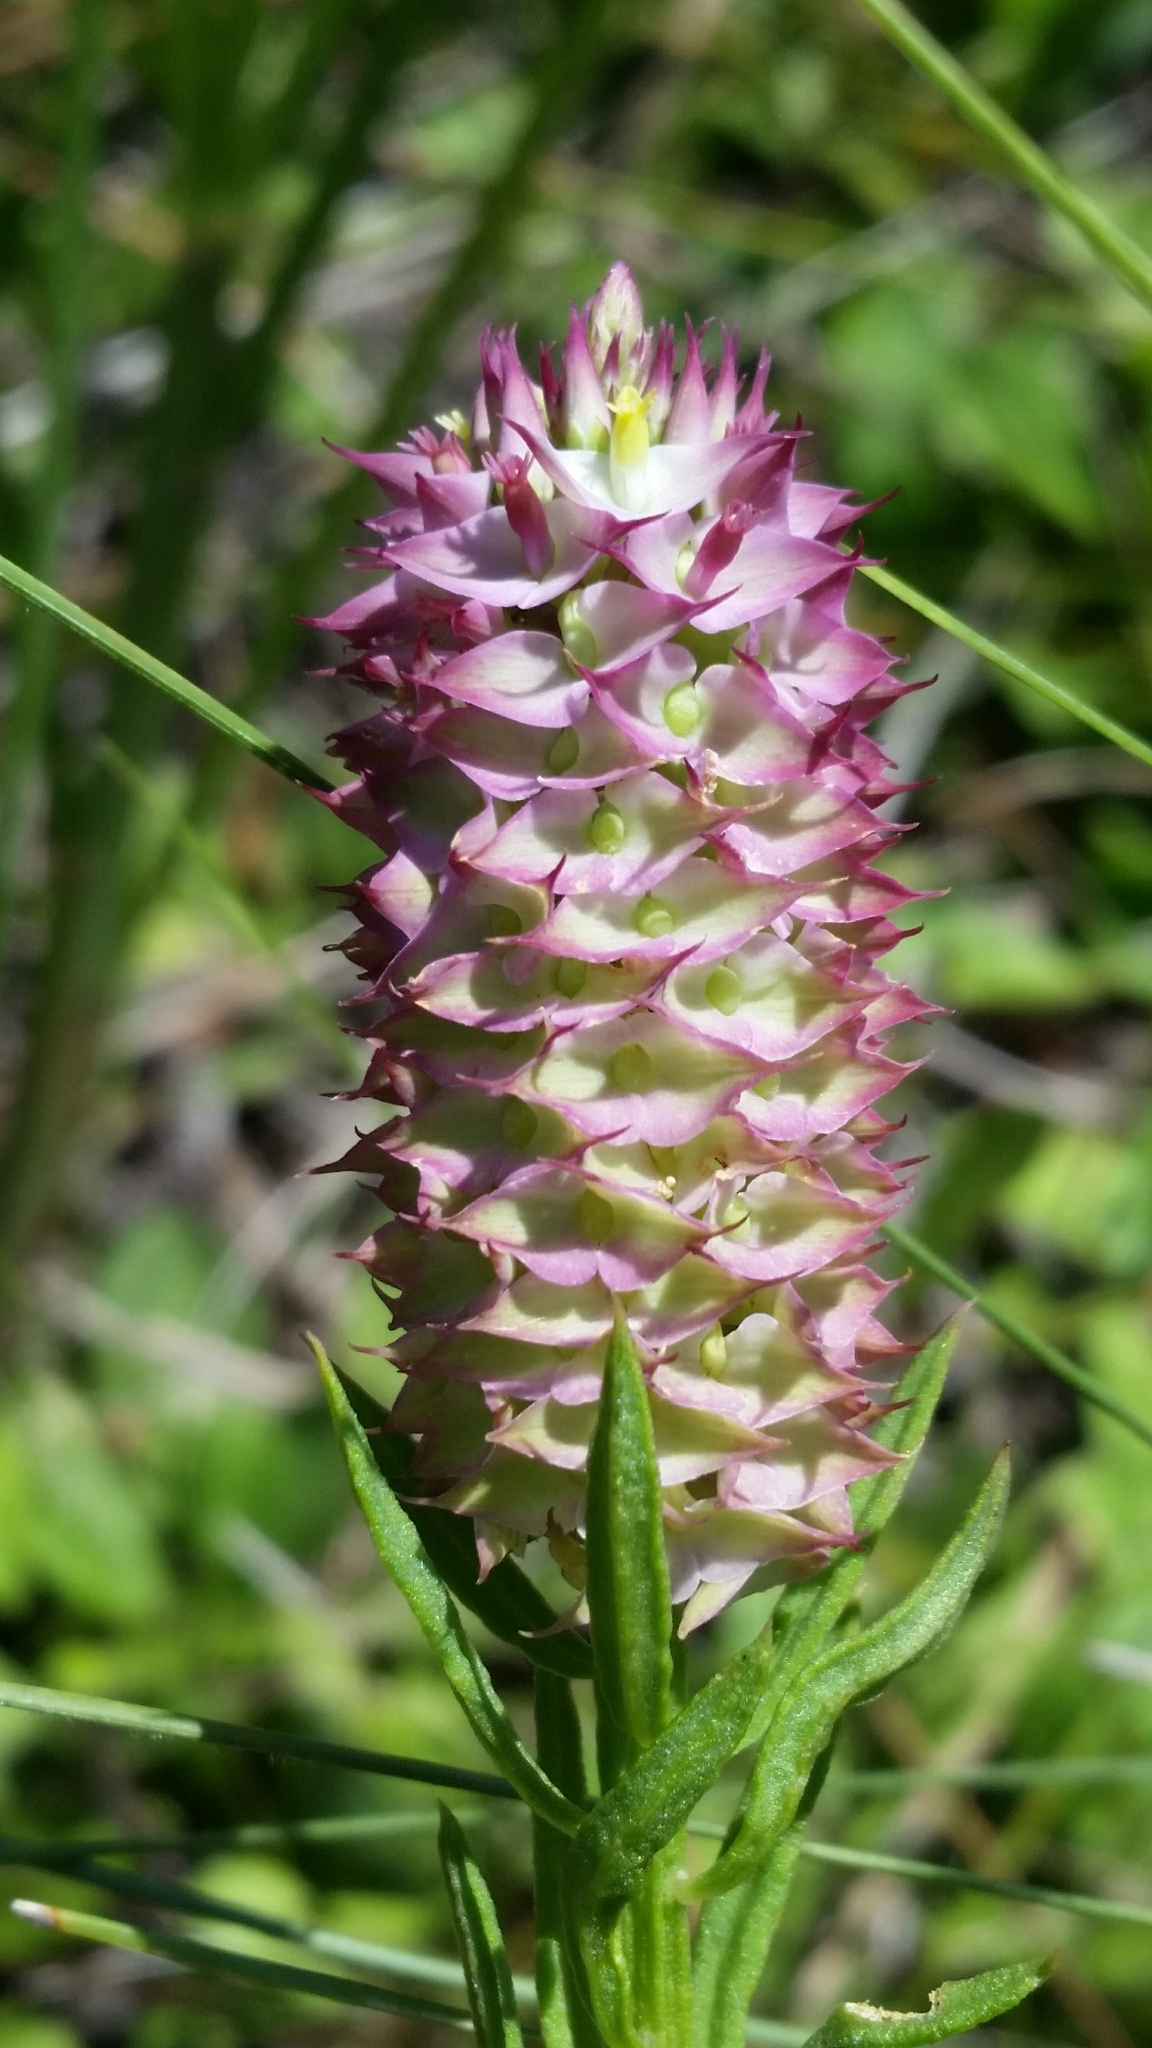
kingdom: Plantae
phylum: Tracheophyta
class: Magnoliopsida
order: Fabales
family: Polygalaceae
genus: Polygala
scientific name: Polygala cruciata
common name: Drumheads
